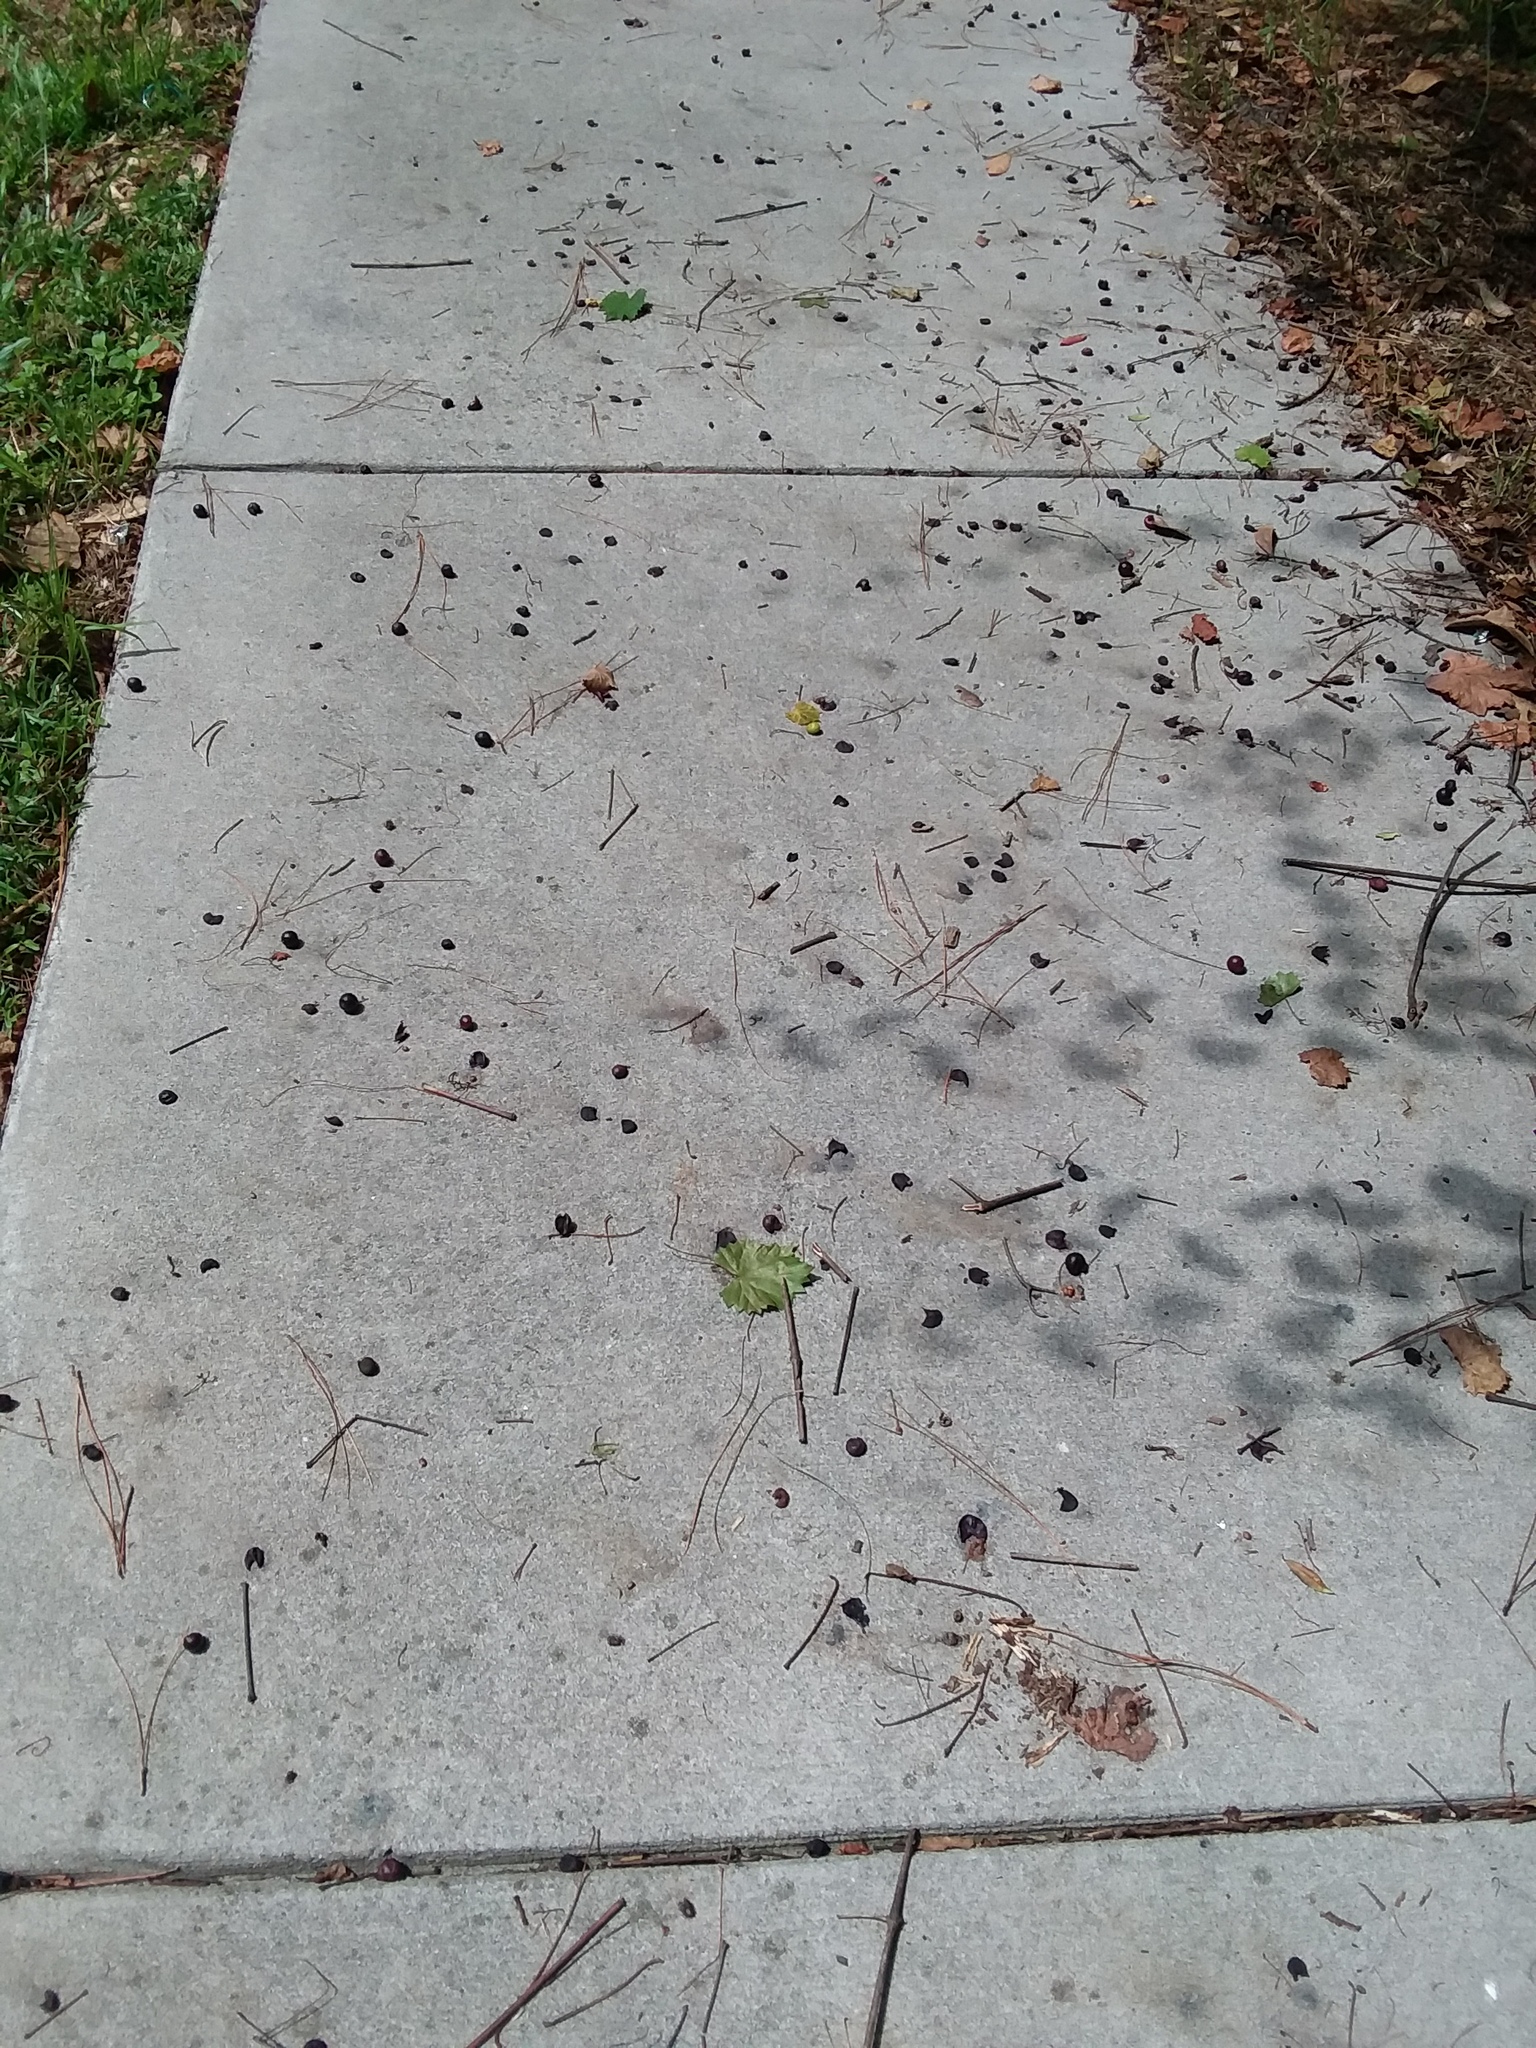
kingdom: Plantae
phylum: Tracheophyta
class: Magnoliopsida
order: Vitales
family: Vitaceae
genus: Vitis
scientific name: Vitis rotundifolia
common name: Muscadine grape
